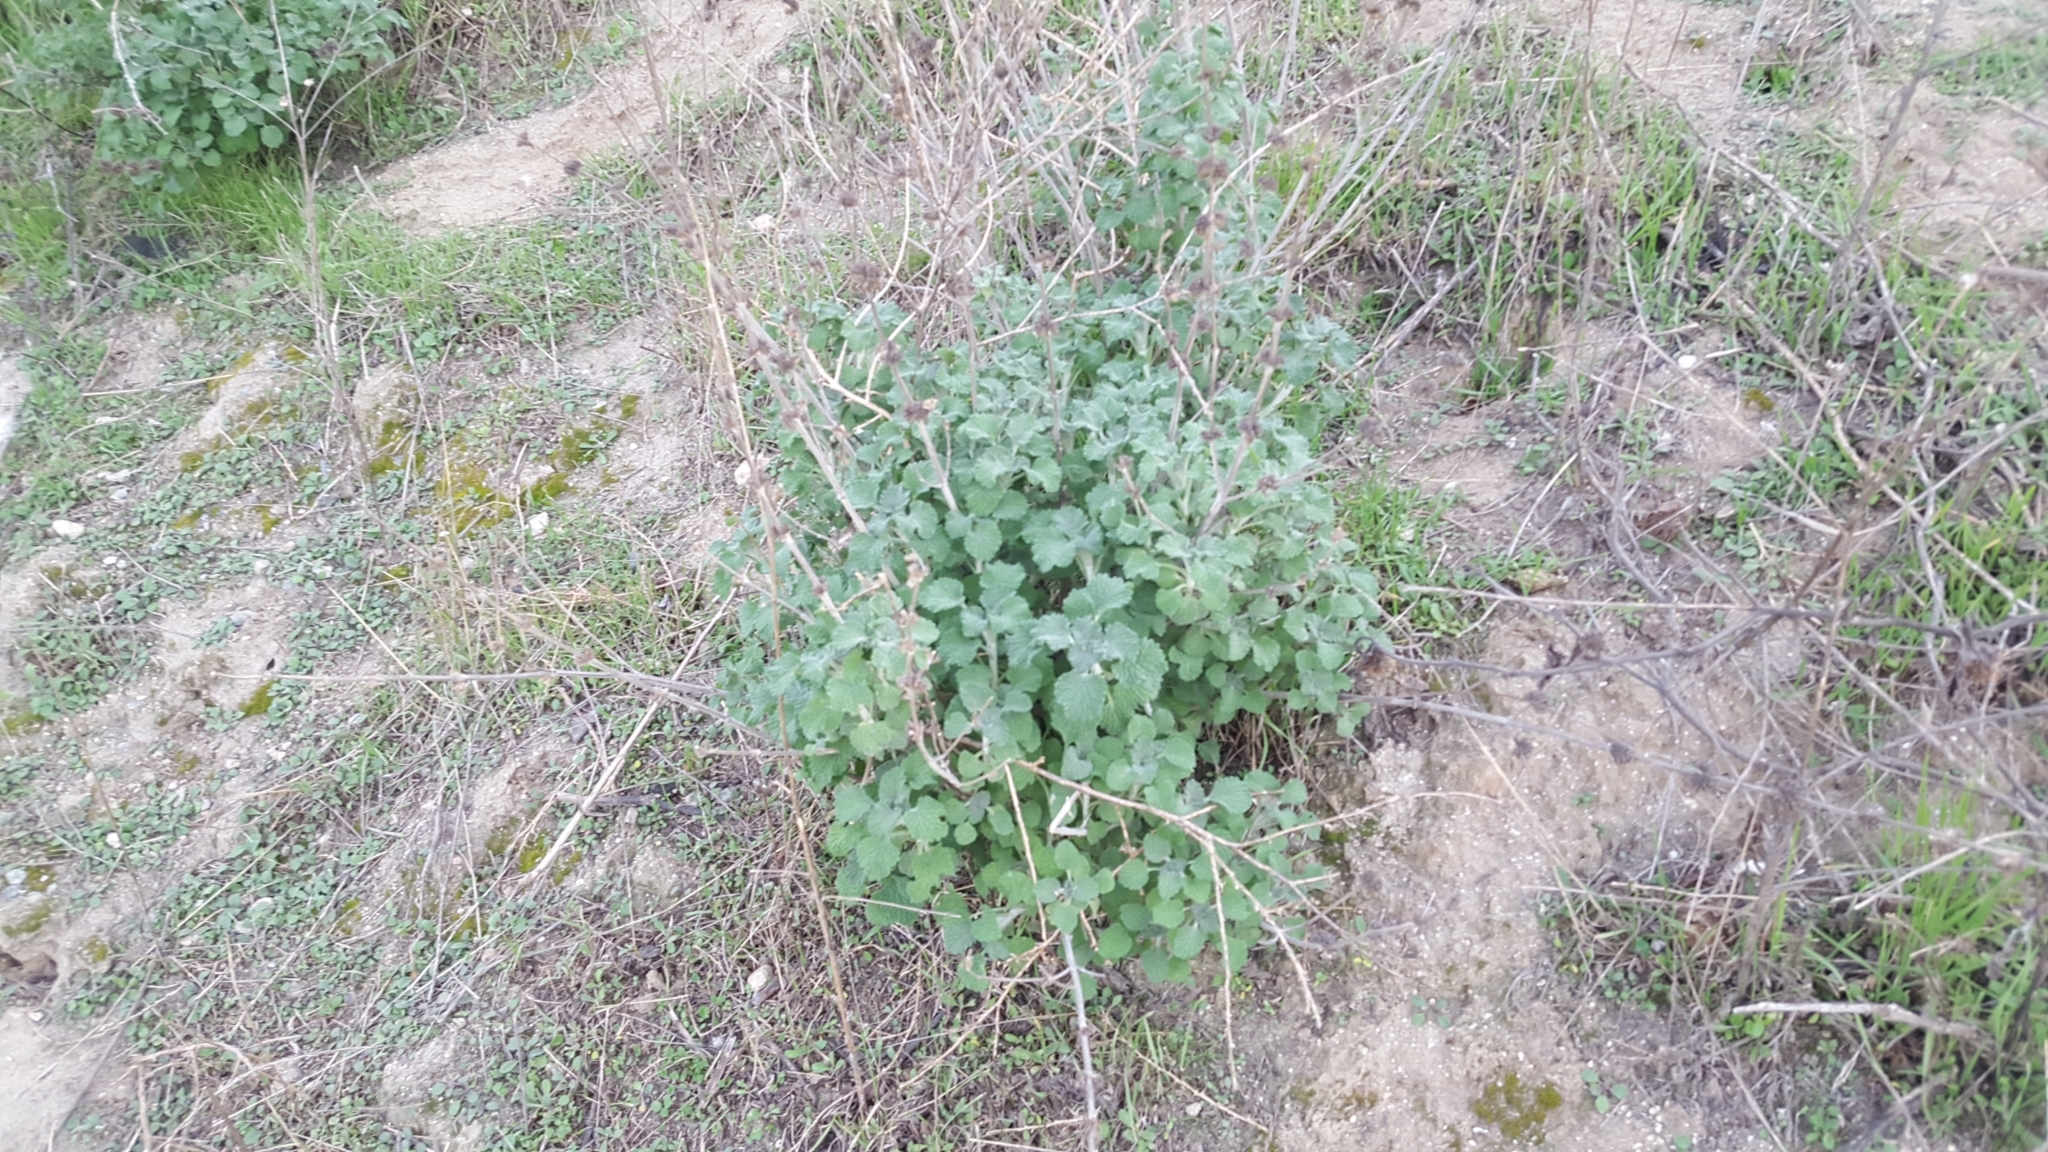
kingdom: Plantae
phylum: Tracheophyta
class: Magnoliopsida
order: Lamiales
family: Lamiaceae
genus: Marrubium
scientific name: Marrubium vulgare
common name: Horehound
